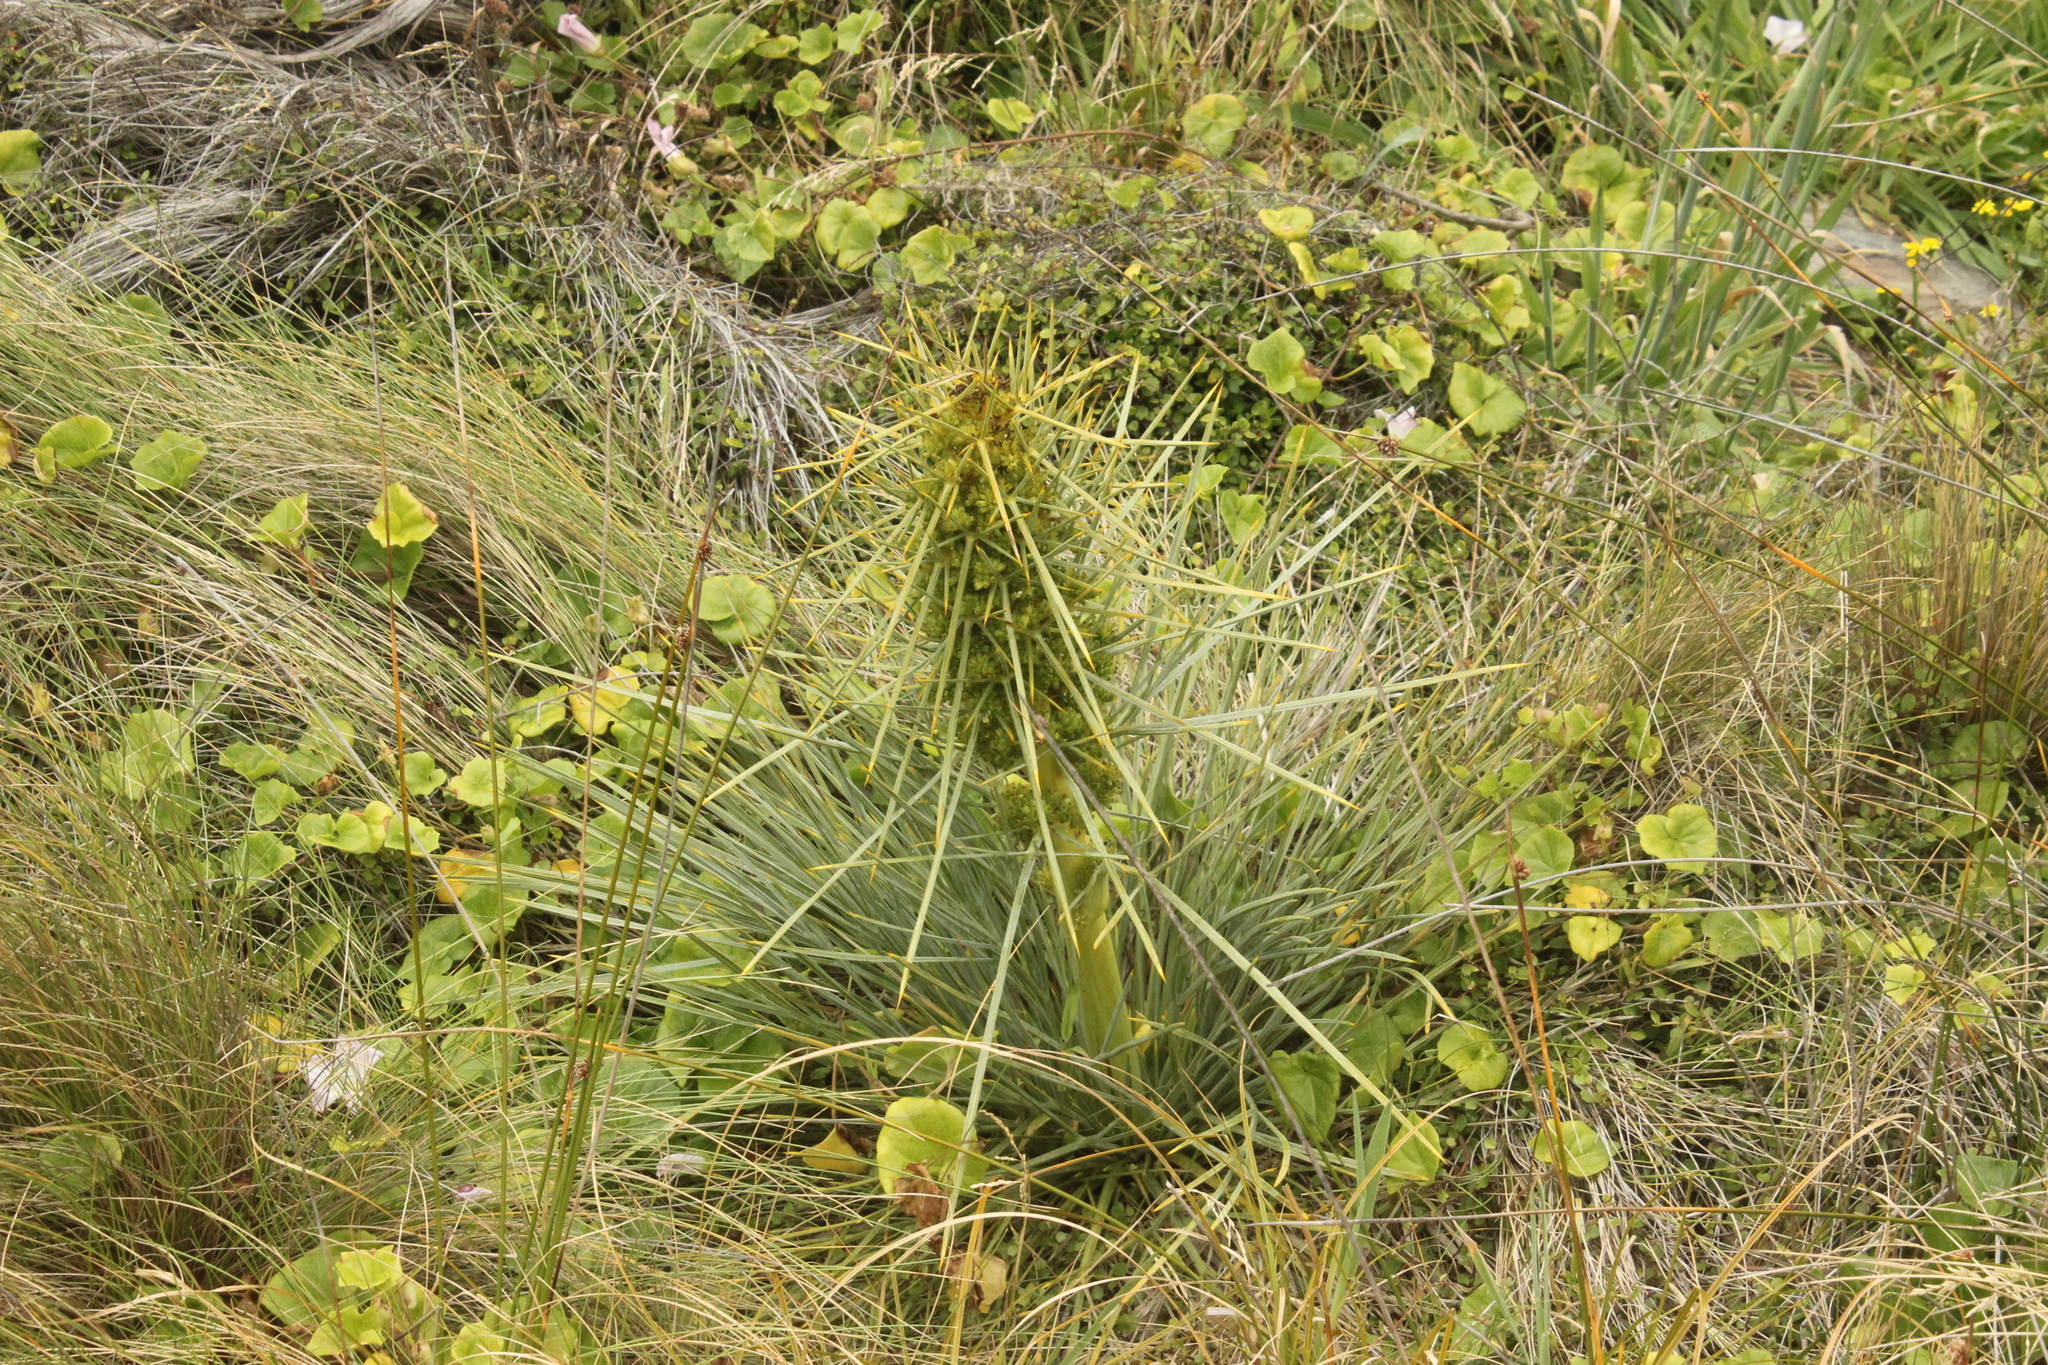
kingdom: Plantae
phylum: Tracheophyta
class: Magnoliopsida
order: Apiales
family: Apiaceae
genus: Aciphylla
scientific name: Aciphylla squarrosa
